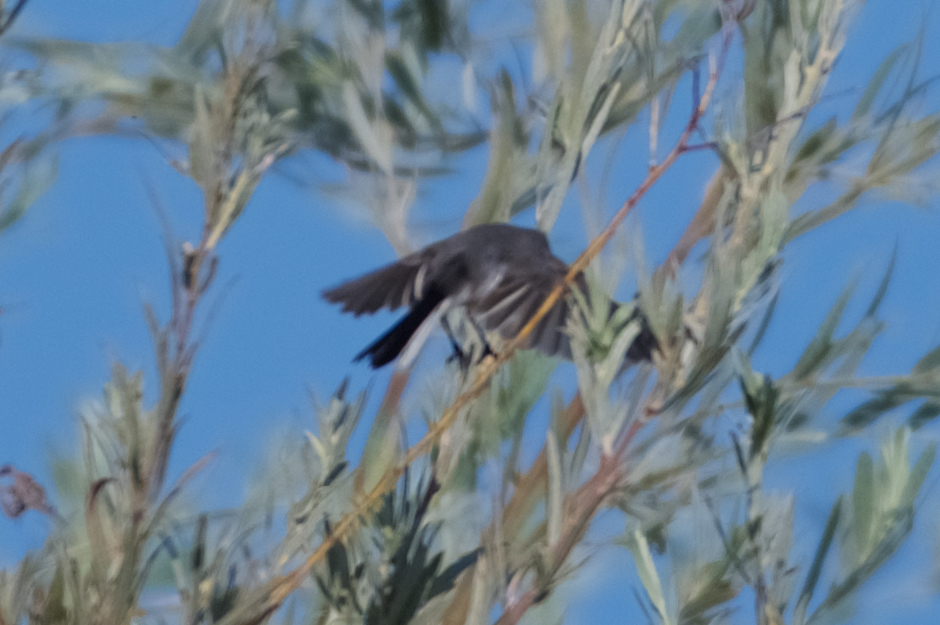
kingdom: Animalia
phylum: Chordata
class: Aves
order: Passeriformes
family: Polioptilidae
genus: Polioptila
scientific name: Polioptila caerulea
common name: Blue-gray gnatcatcher
